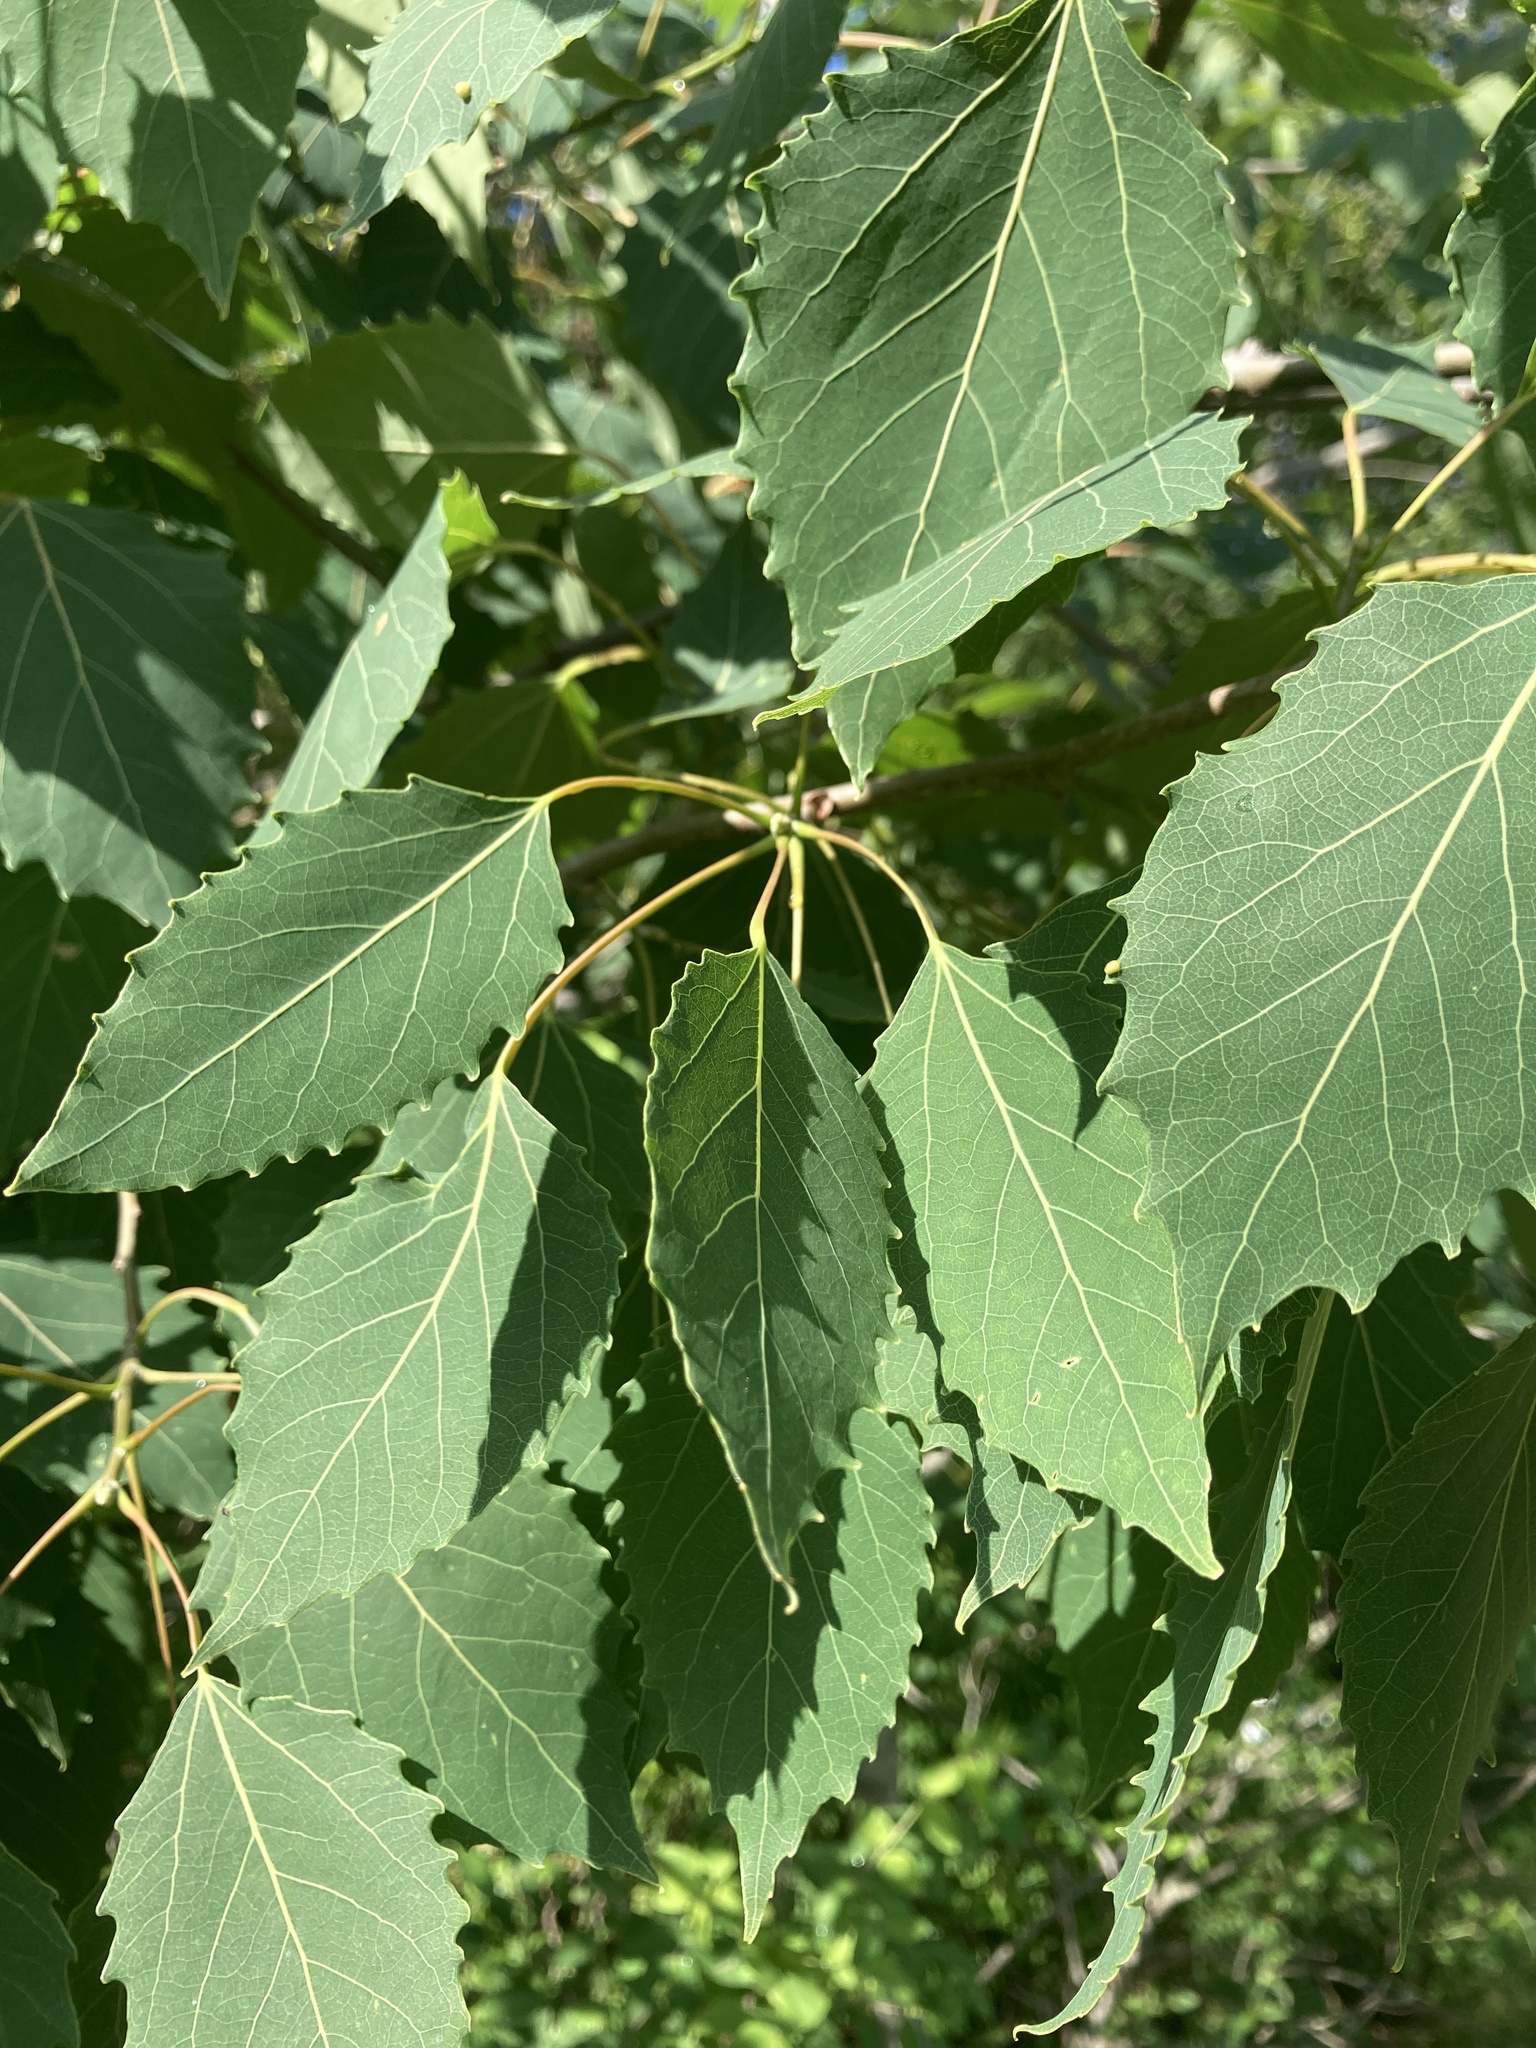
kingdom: Plantae
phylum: Tracheophyta
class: Magnoliopsida
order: Malpighiales
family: Salicaceae
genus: Populus
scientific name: Populus grandidentata
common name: Bigtooth aspen
